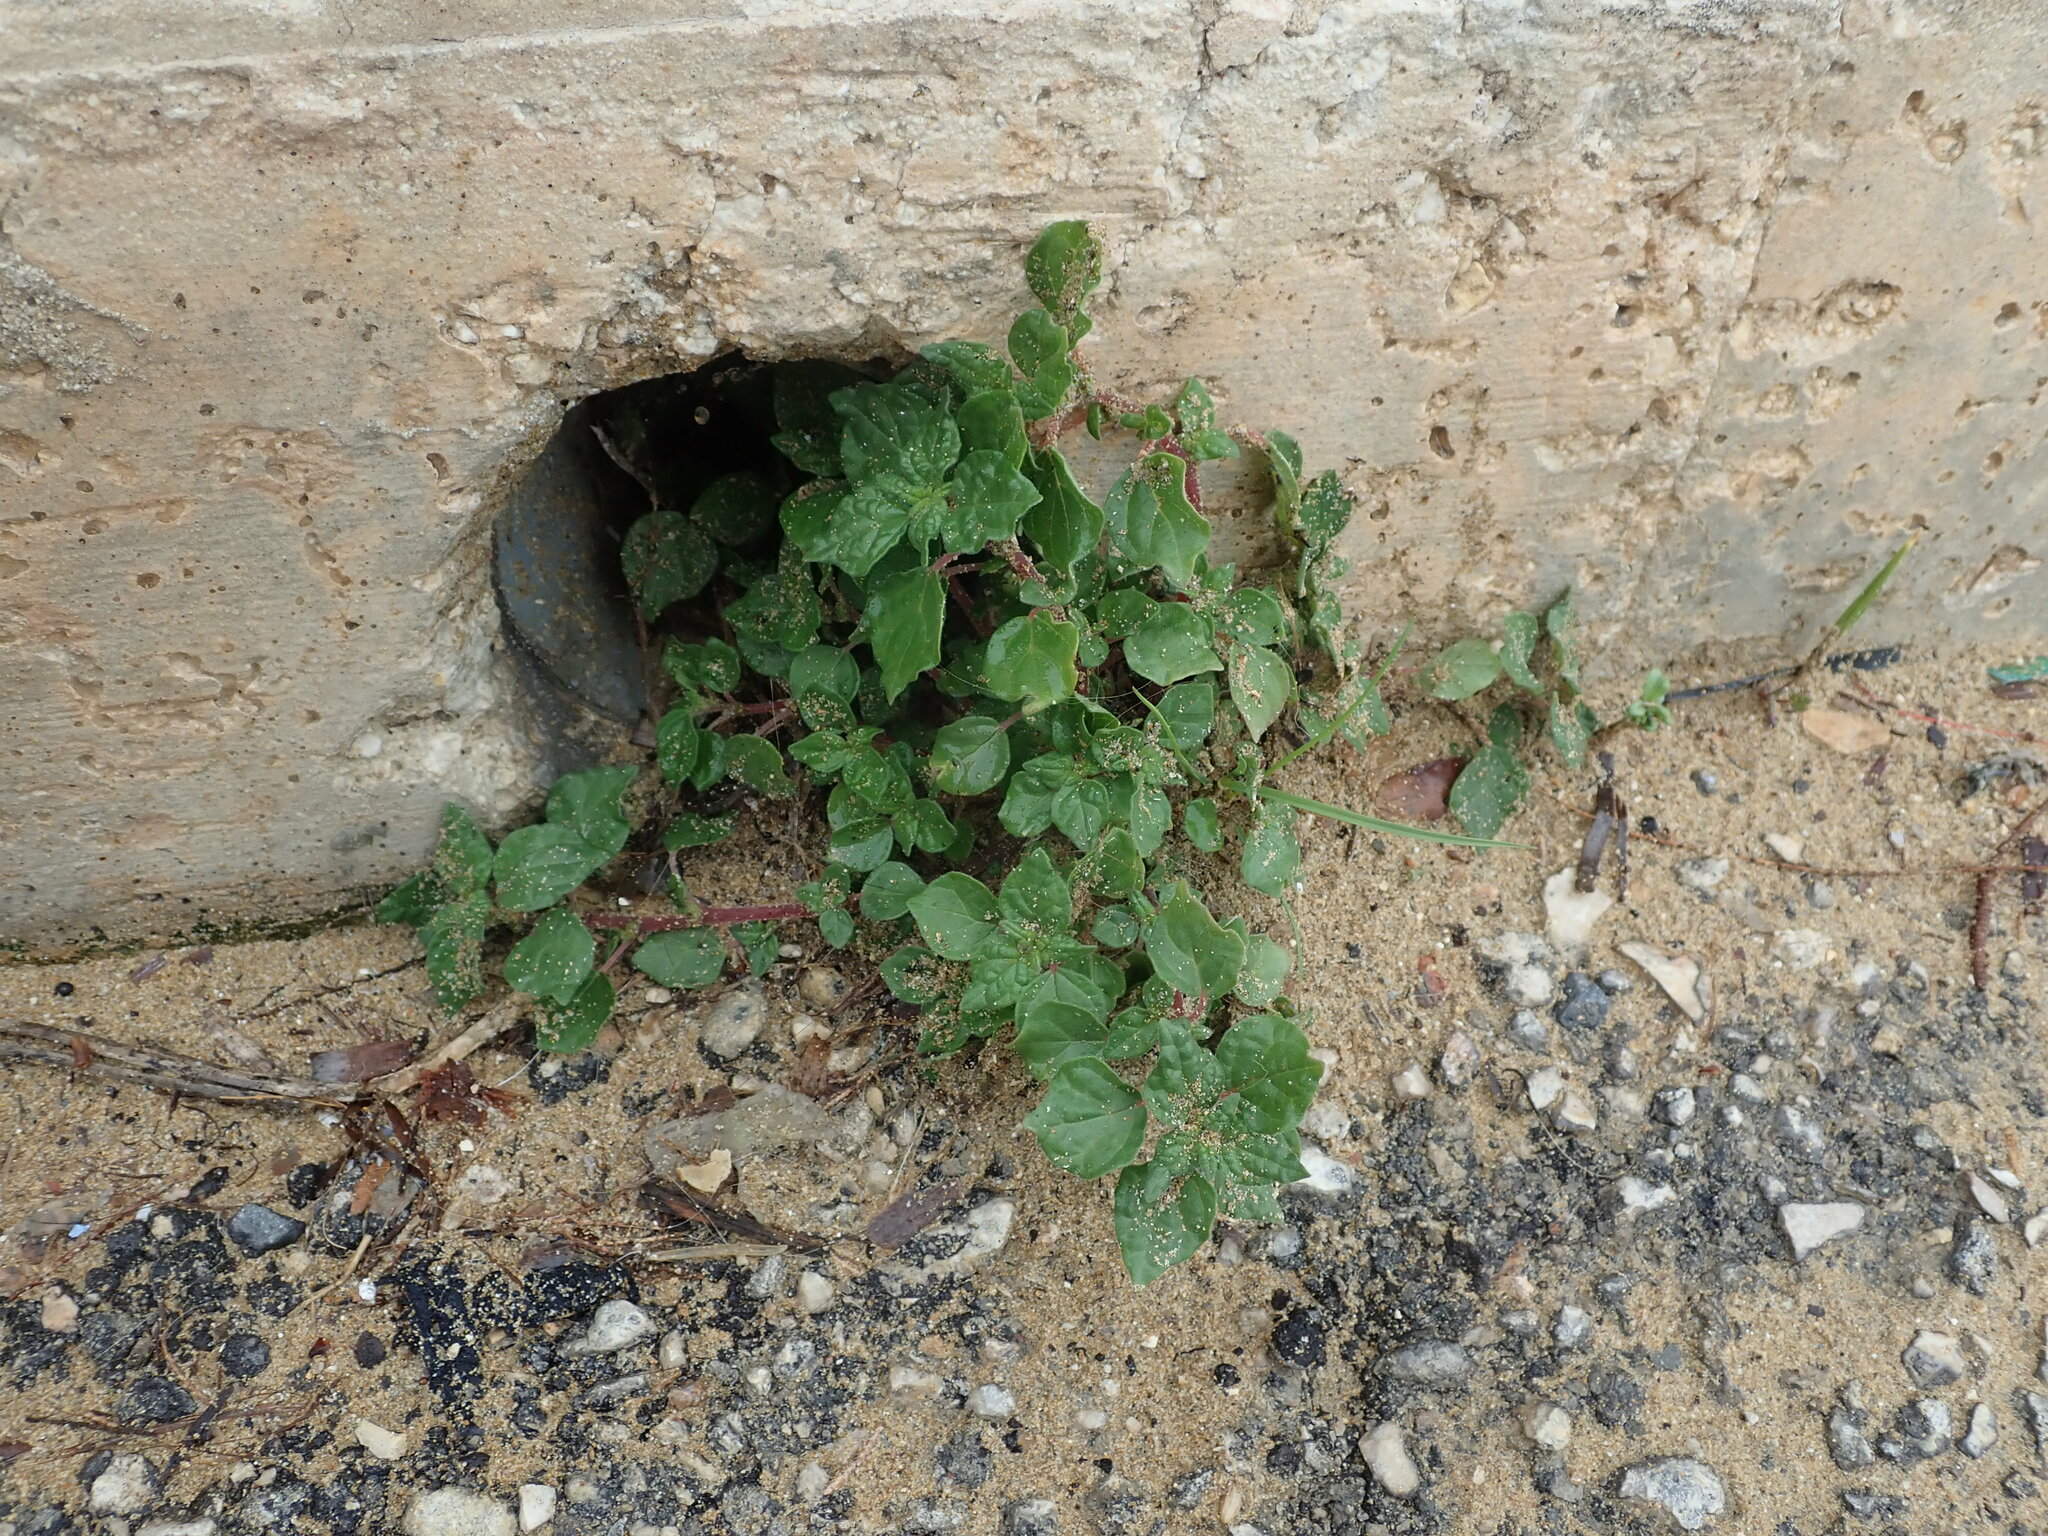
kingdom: Plantae
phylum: Tracheophyta
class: Magnoliopsida
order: Rosales
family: Urticaceae
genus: Parietaria
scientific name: Parietaria judaica
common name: Pellitory-of-the-wall
